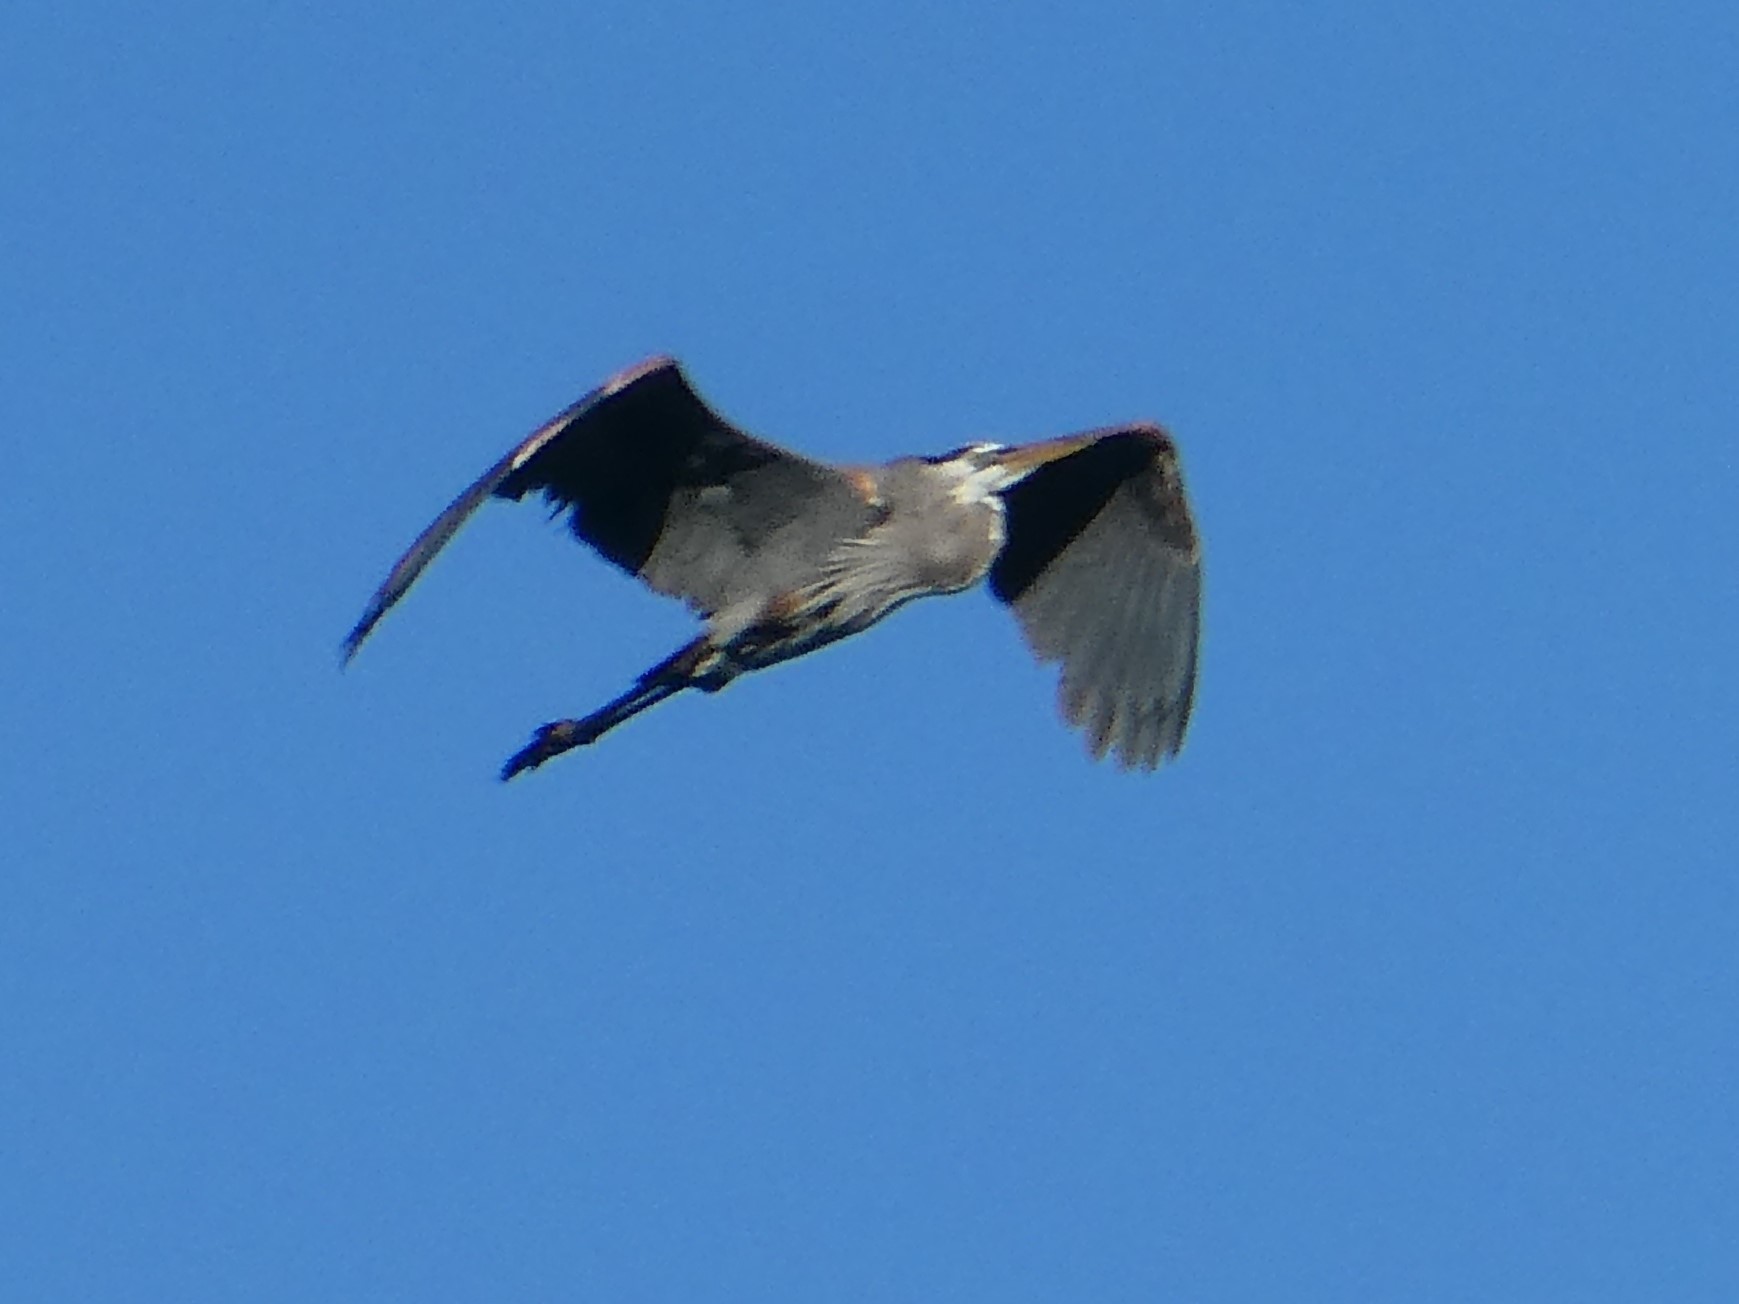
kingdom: Animalia
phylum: Chordata
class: Aves
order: Pelecaniformes
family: Ardeidae
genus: Ardea
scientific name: Ardea herodias
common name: Great blue heron
